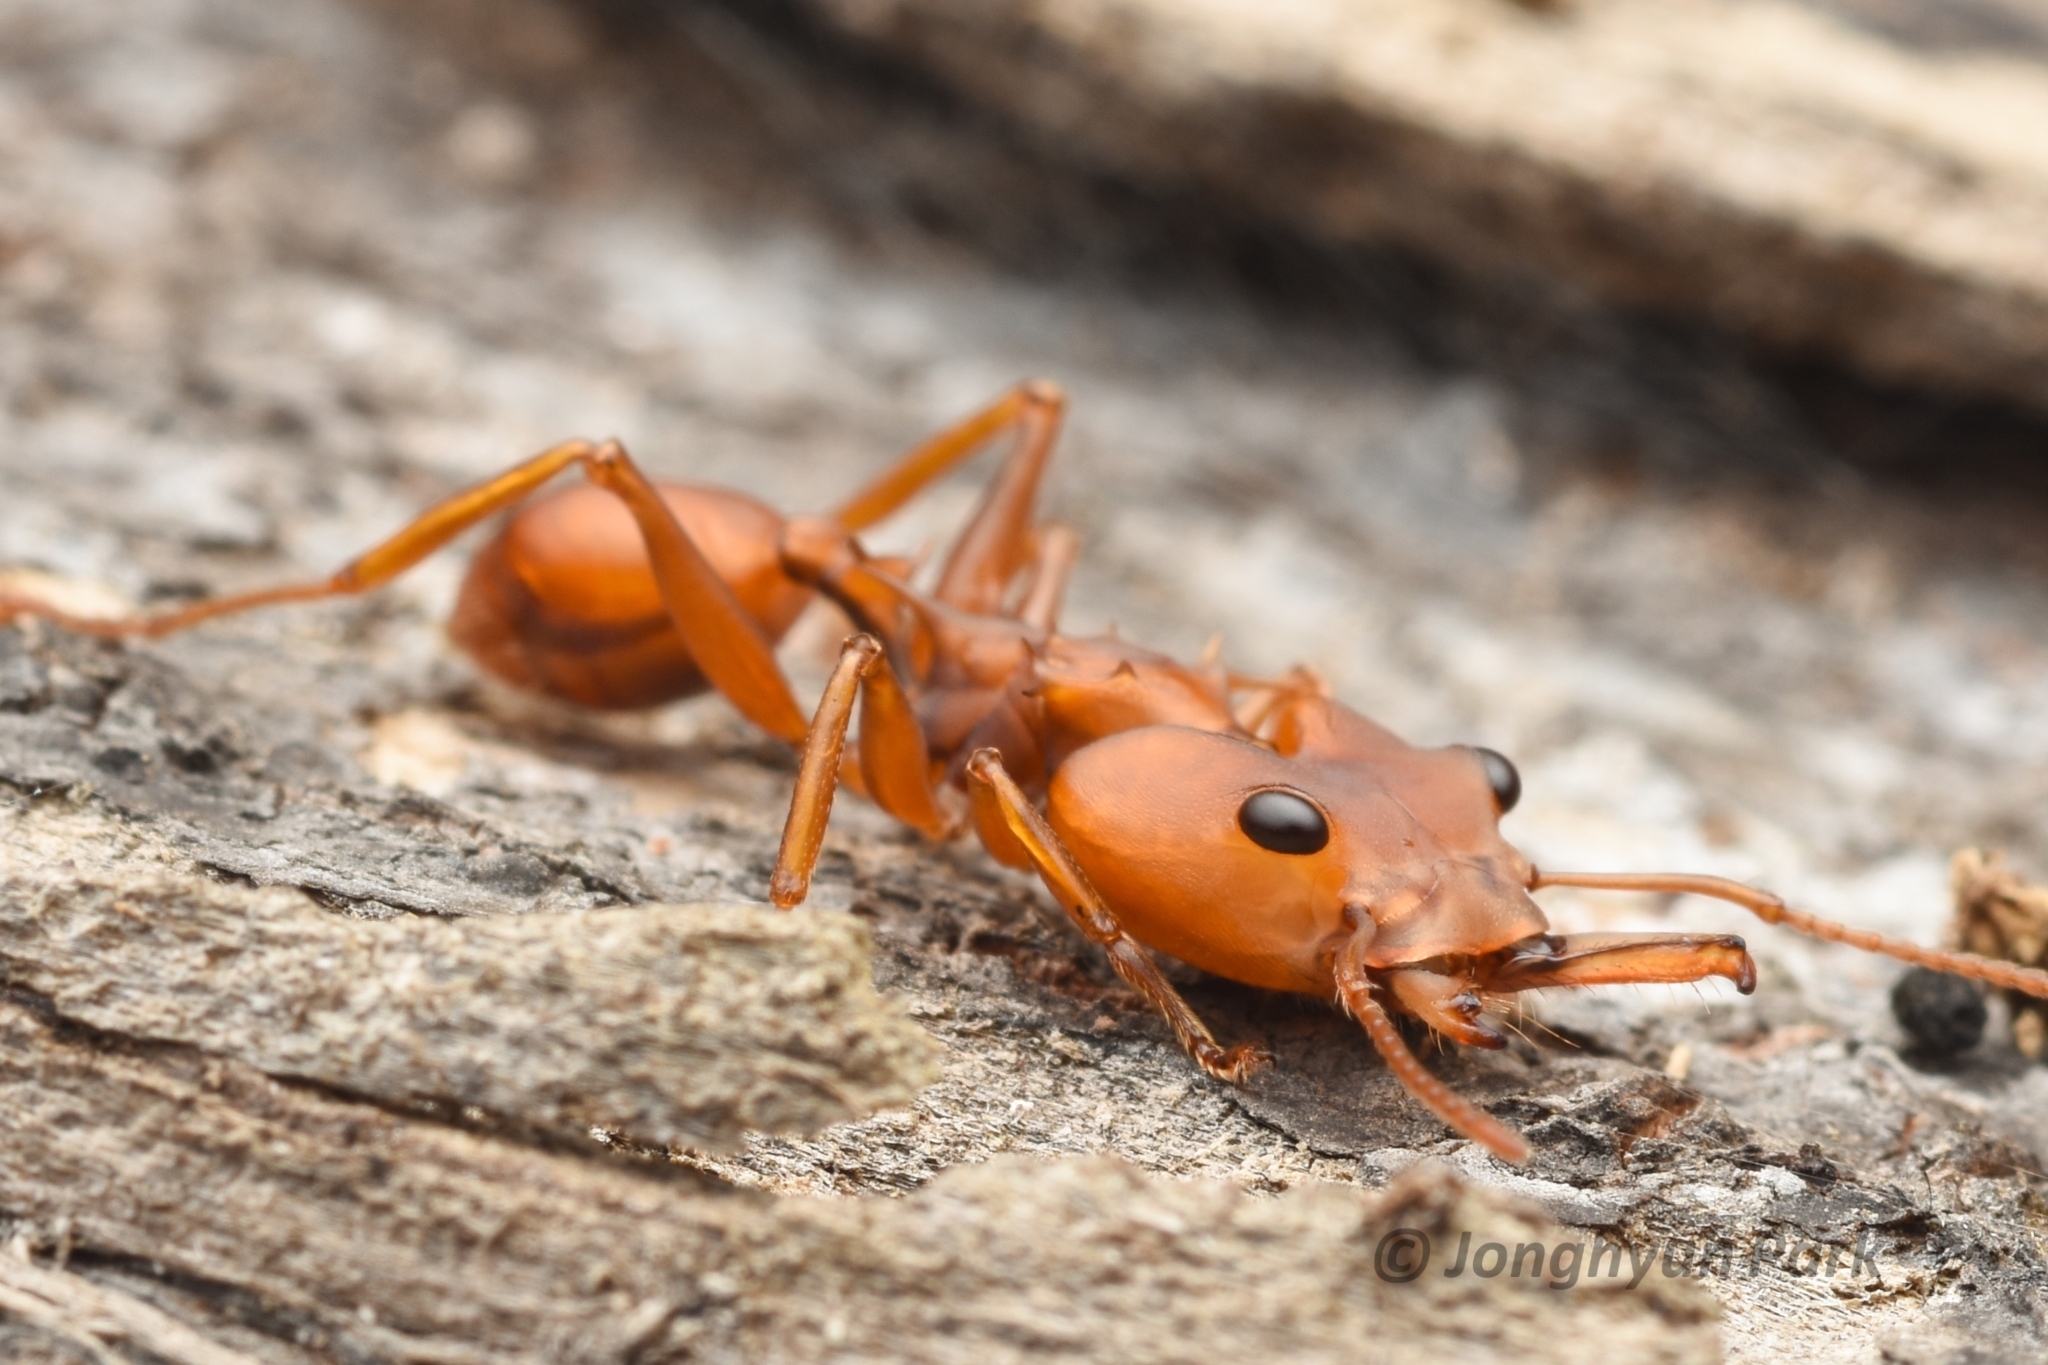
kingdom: Animalia
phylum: Arthropoda
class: Insecta
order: Hymenoptera
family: Formicidae
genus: Daceton
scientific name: Daceton armigerum
